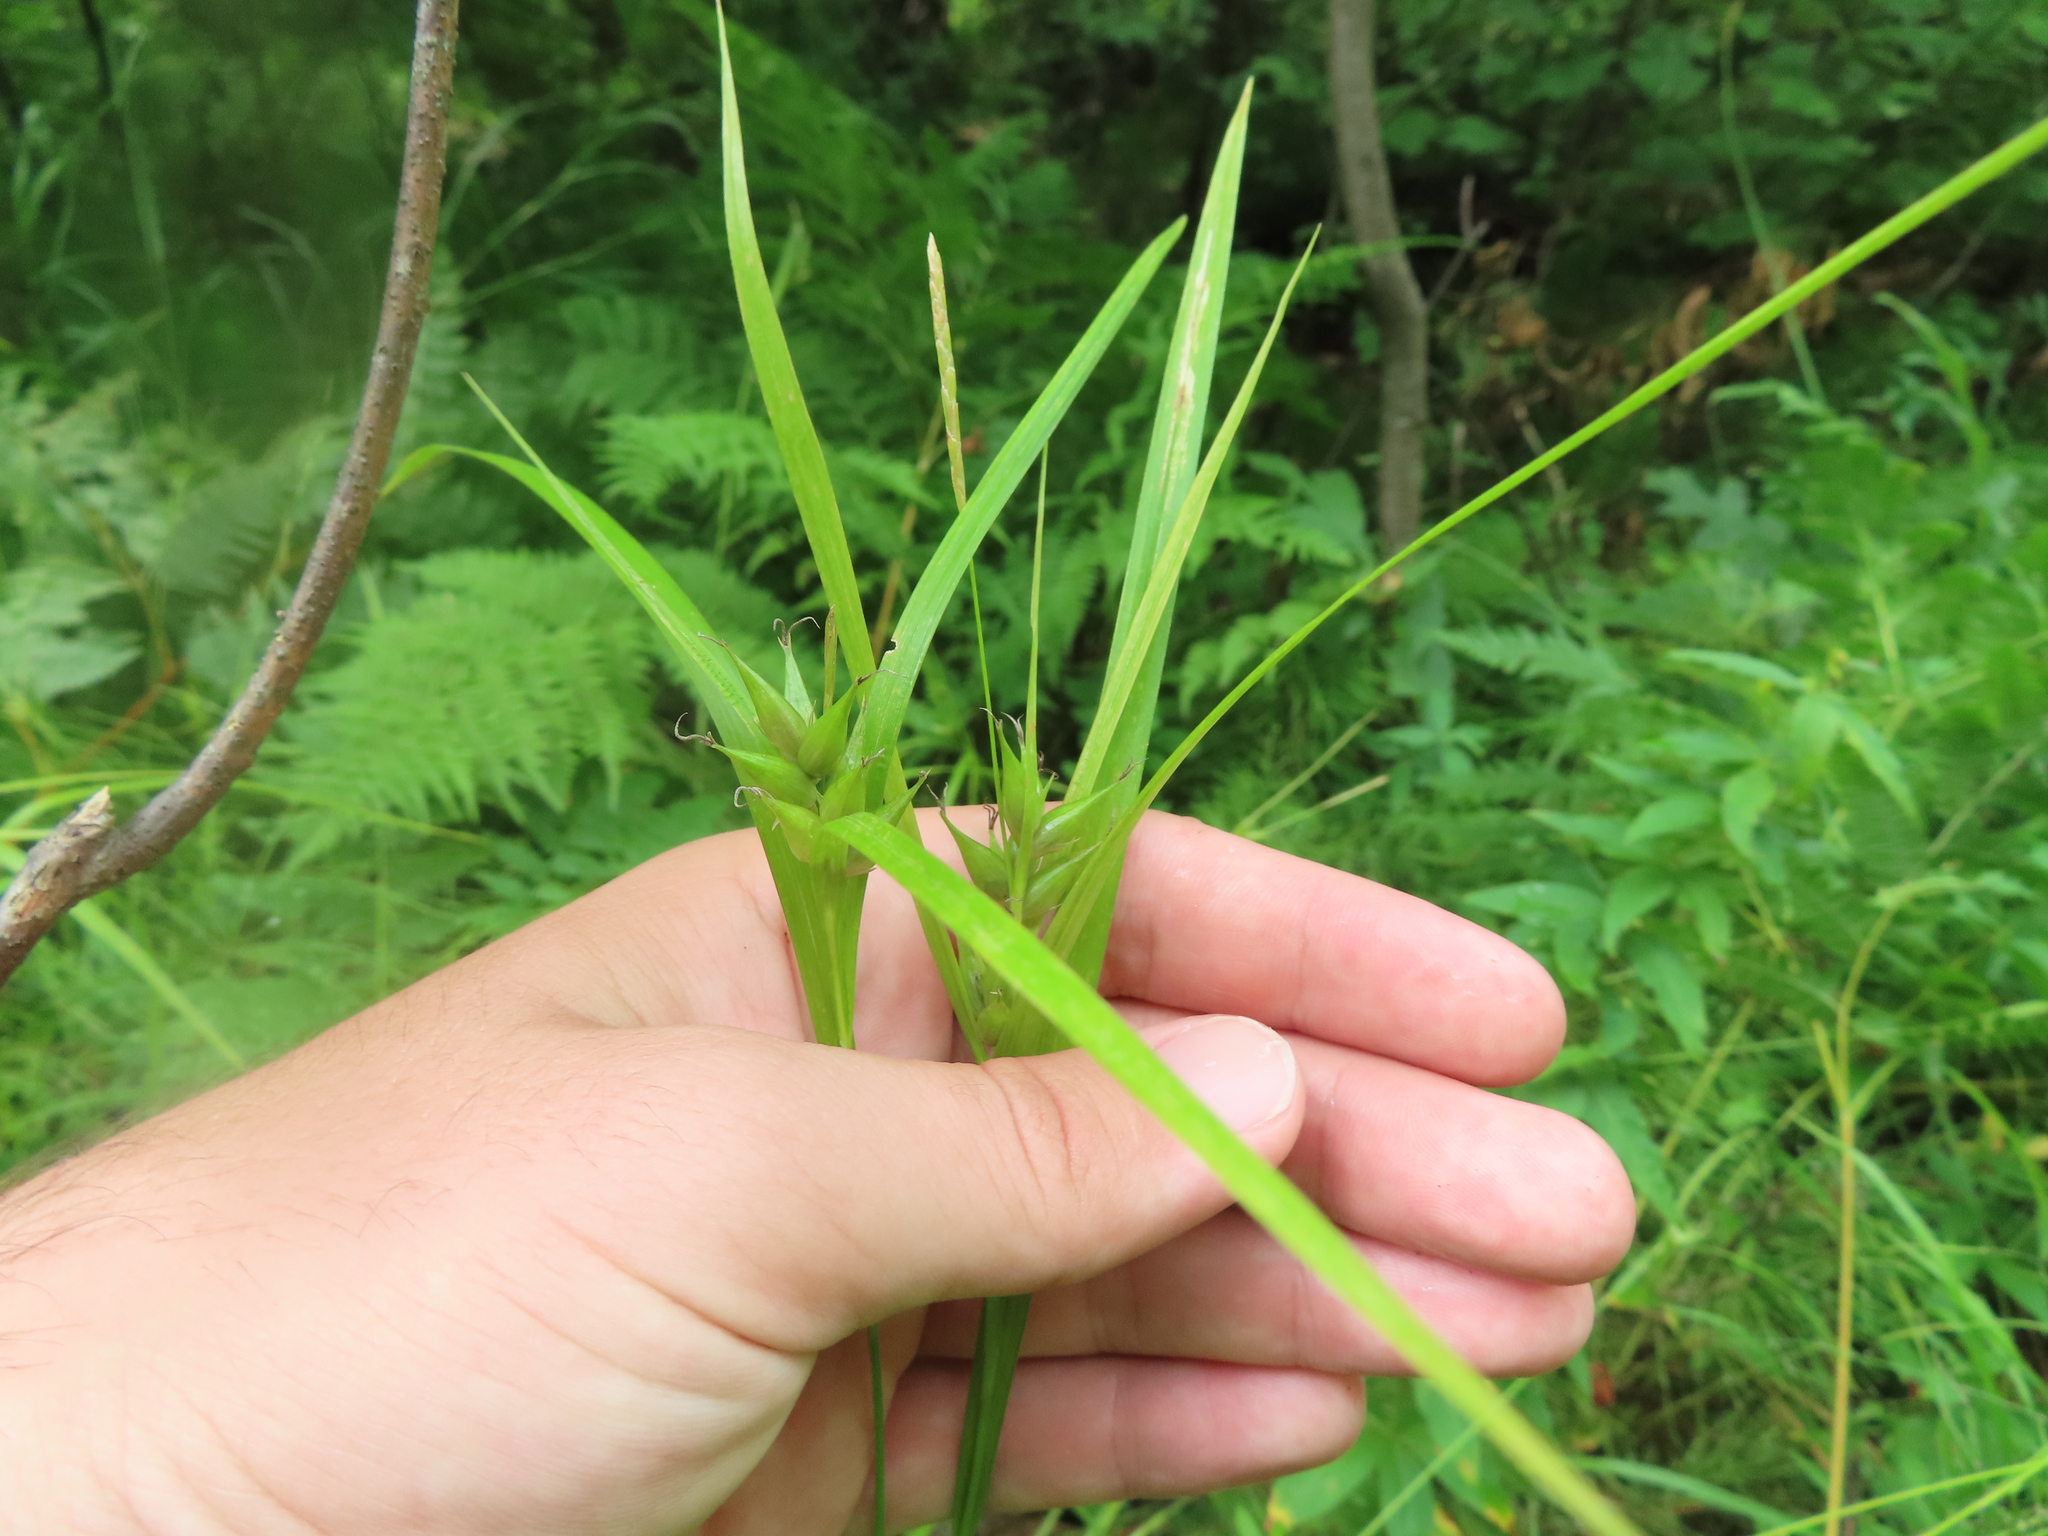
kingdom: Plantae
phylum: Tracheophyta
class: Liliopsida
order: Poales
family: Cyperaceae
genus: Carex
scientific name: Carex intumescens
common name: Greater bladder sedge
